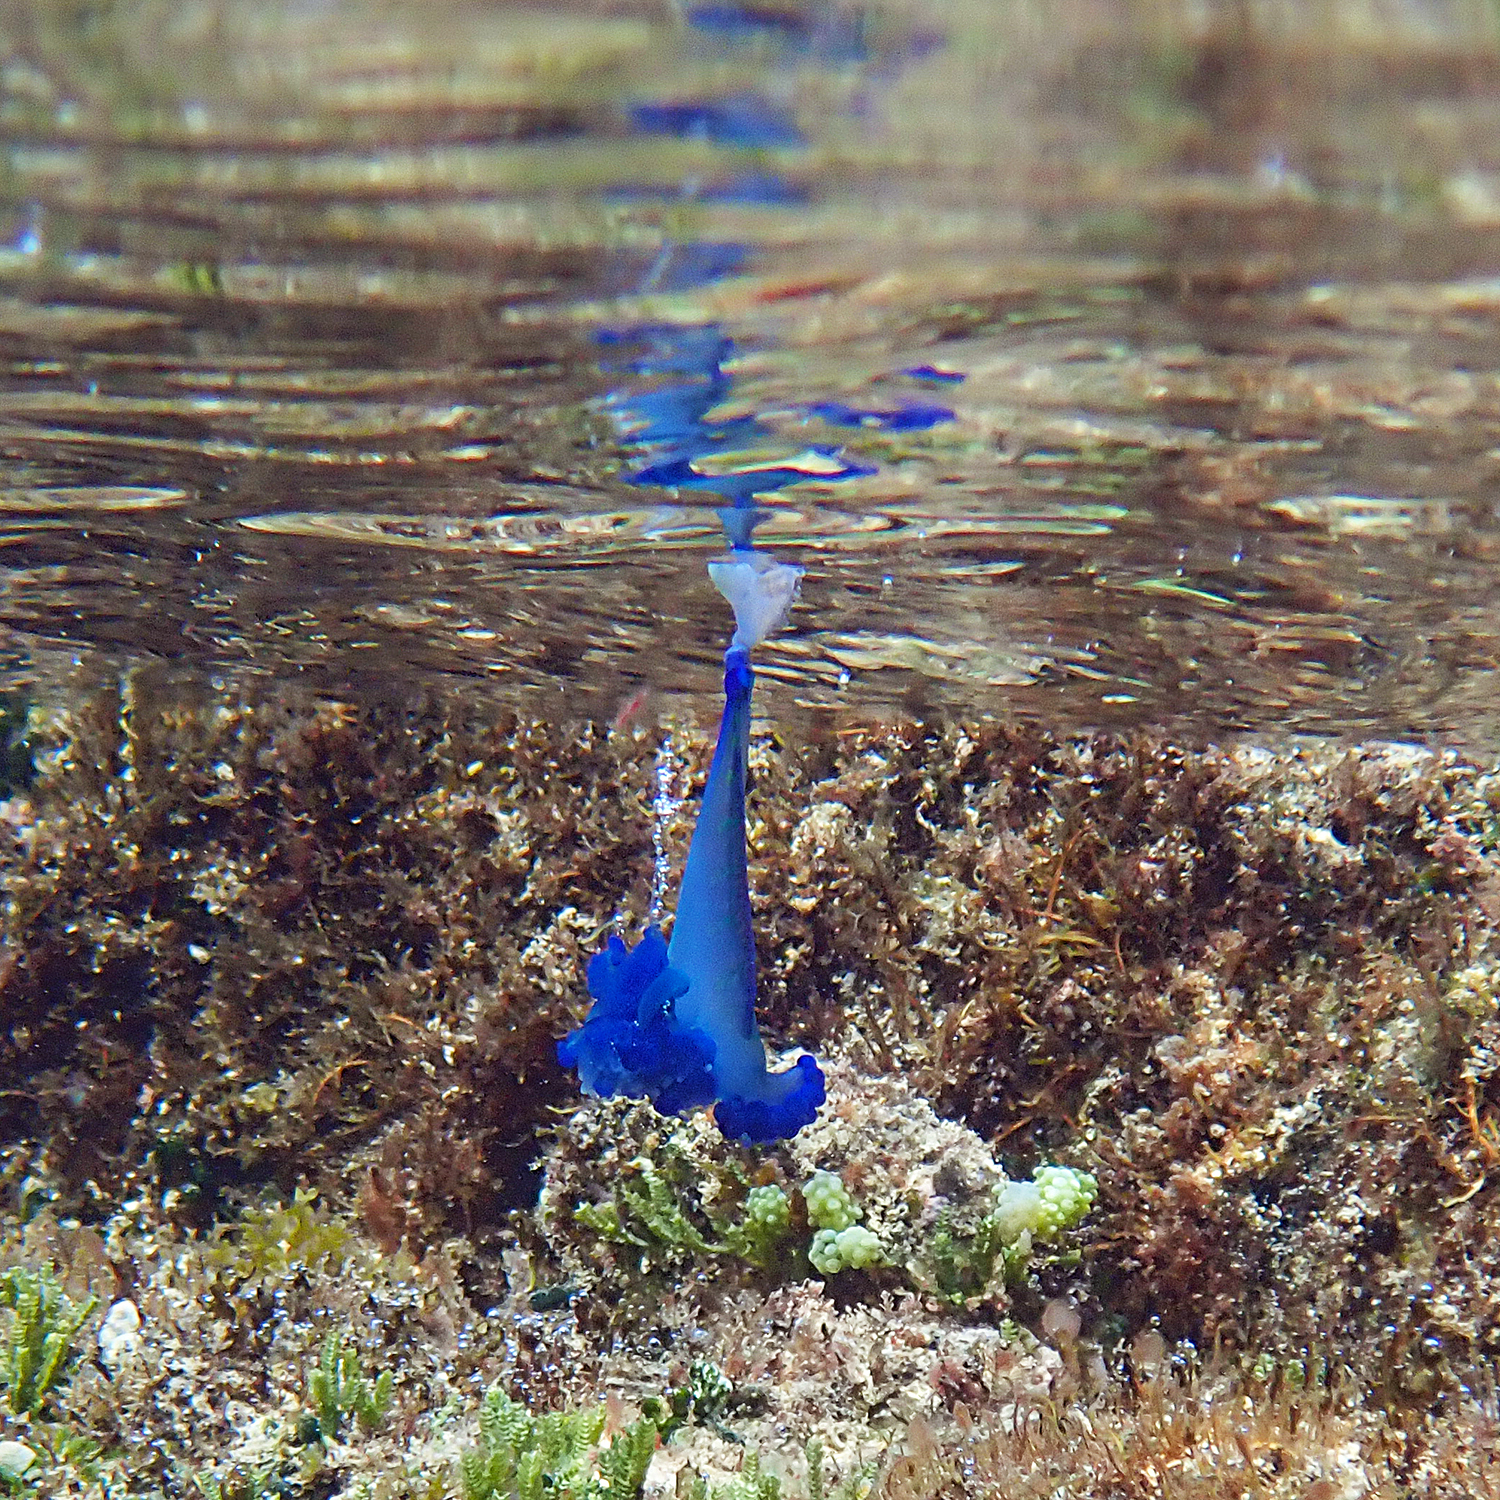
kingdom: Animalia
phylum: Cnidaria
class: Hydrozoa
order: Siphonophorae
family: Physaliidae
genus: Physalia
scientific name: Physalia physalis
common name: Portuguese man-of-war
